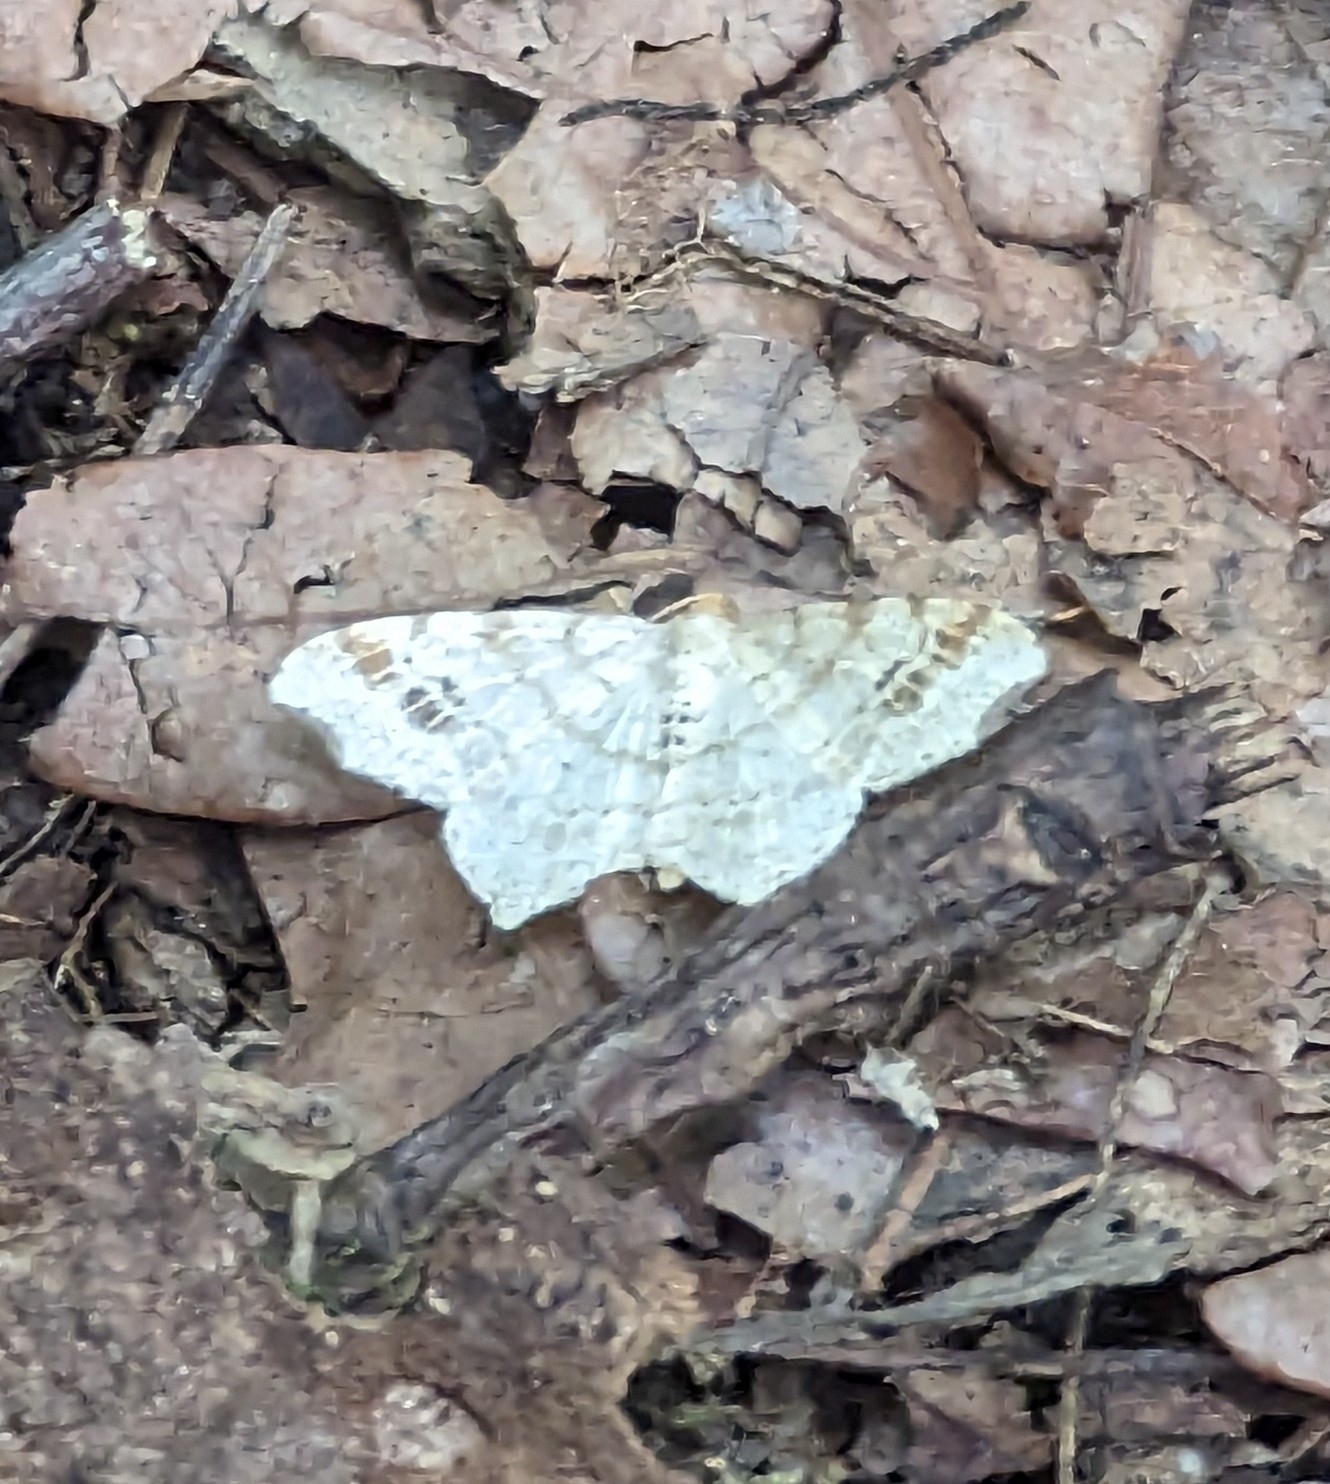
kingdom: Animalia
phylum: Arthropoda
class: Insecta
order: Lepidoptera
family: Geometridae
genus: Macaria
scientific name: Macaria aemulataria
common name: Common angle
